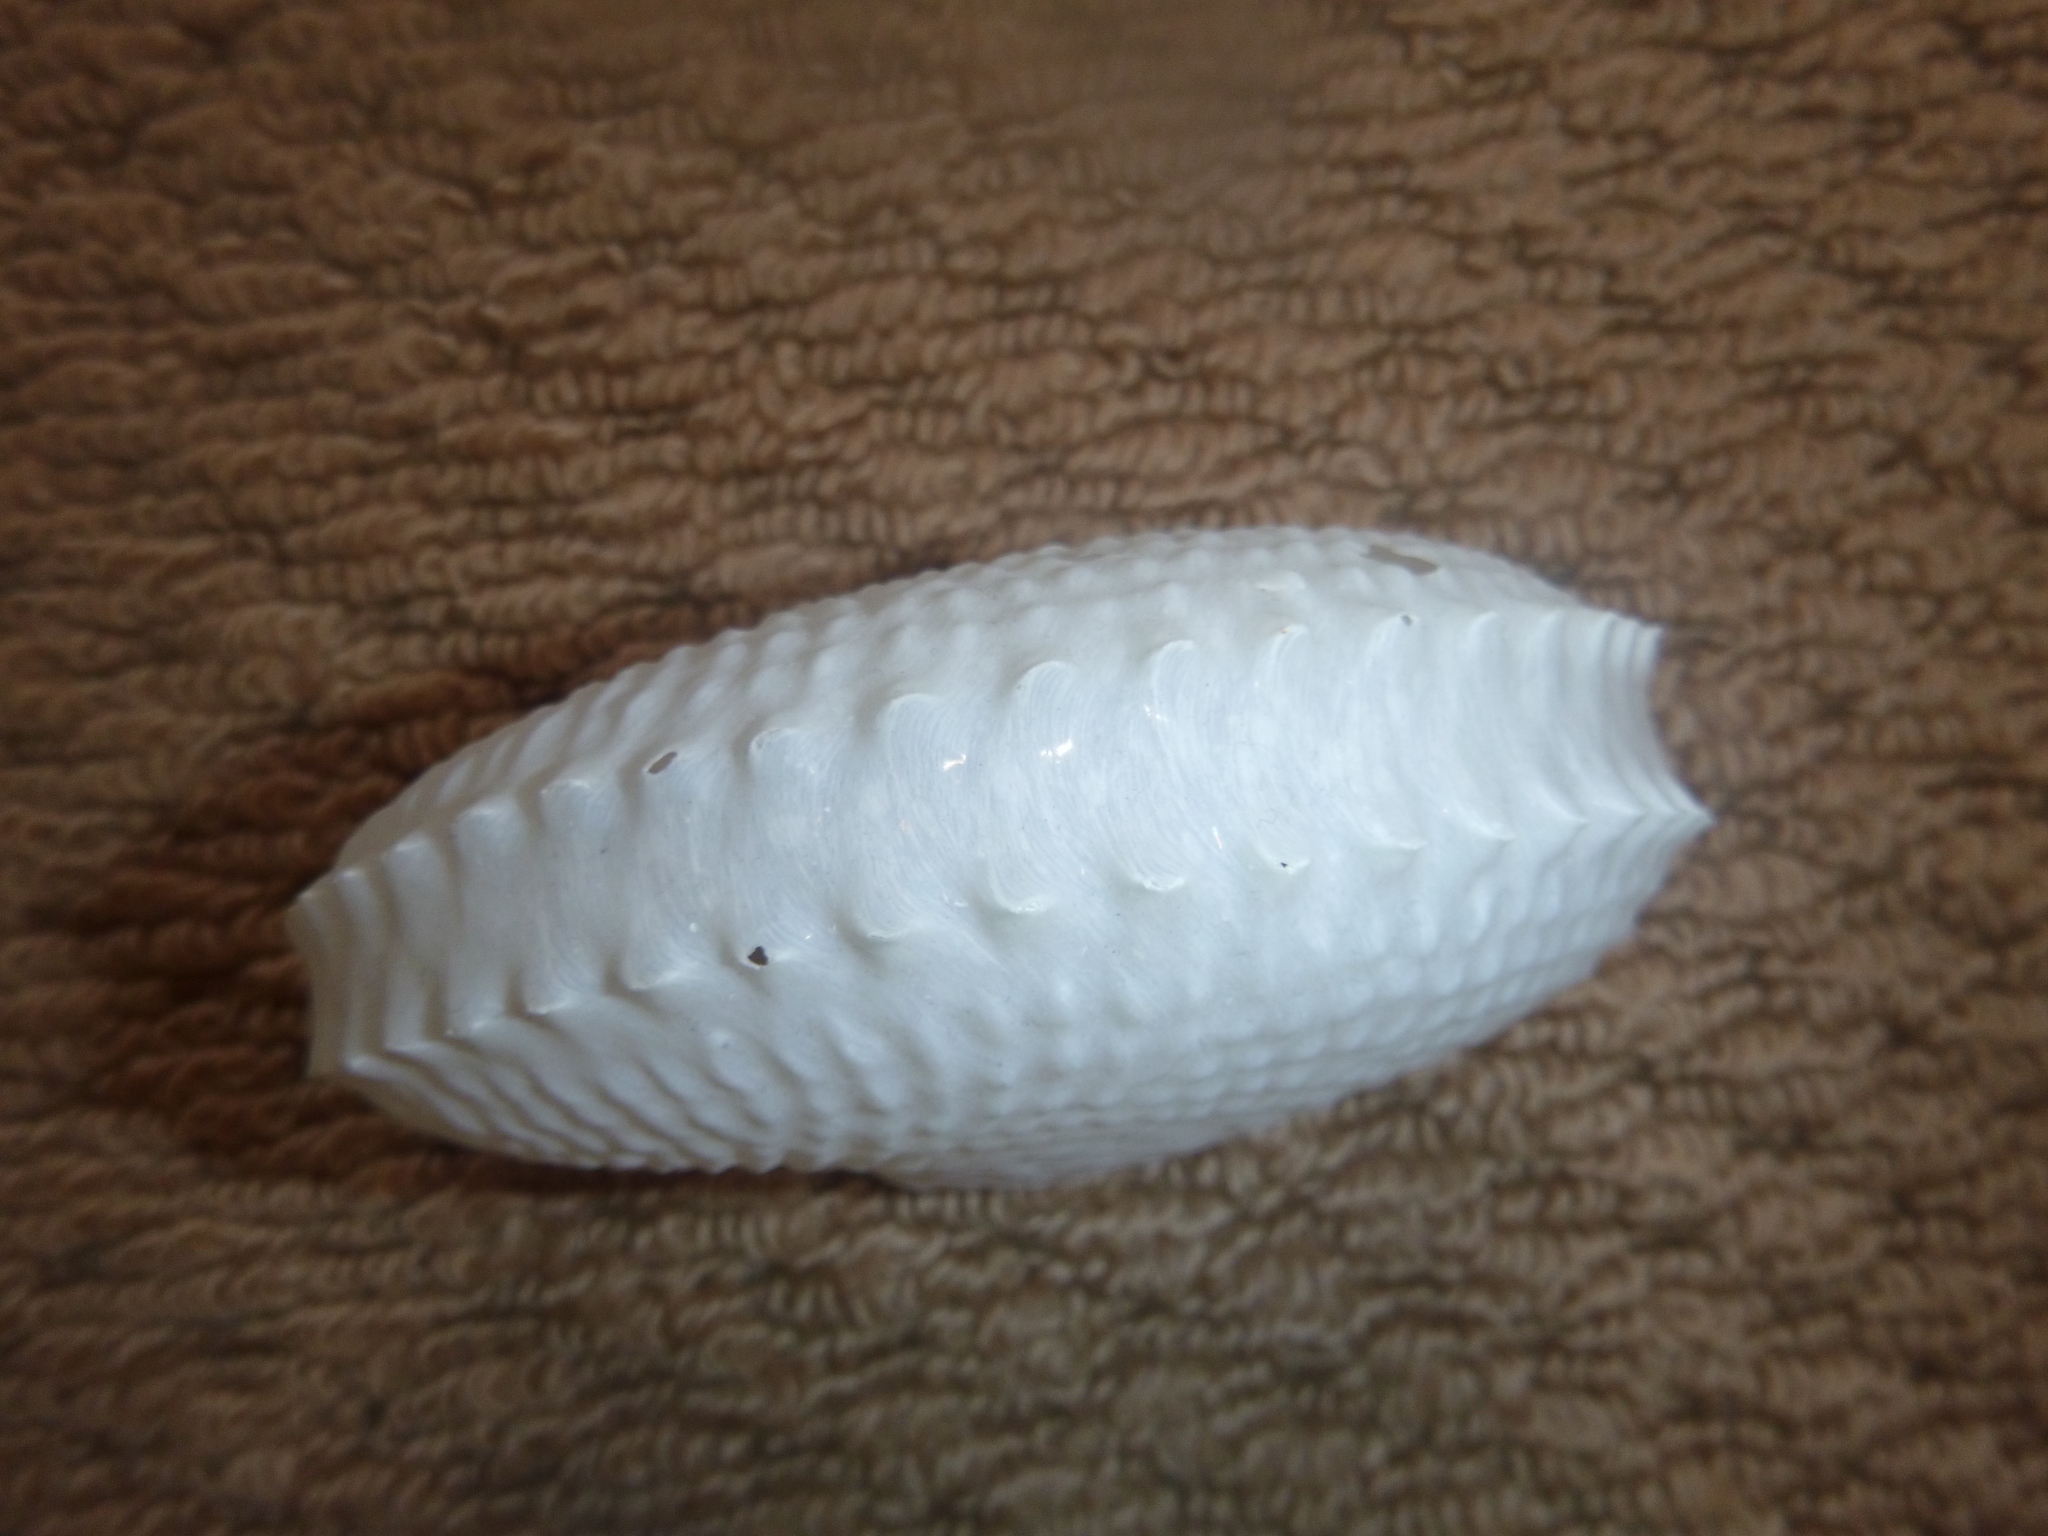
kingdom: Animalia
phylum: Mollusca
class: Cephalopoda
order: Octopoda
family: Argonautidae
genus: Argonauta
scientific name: Argonauta nodosus
